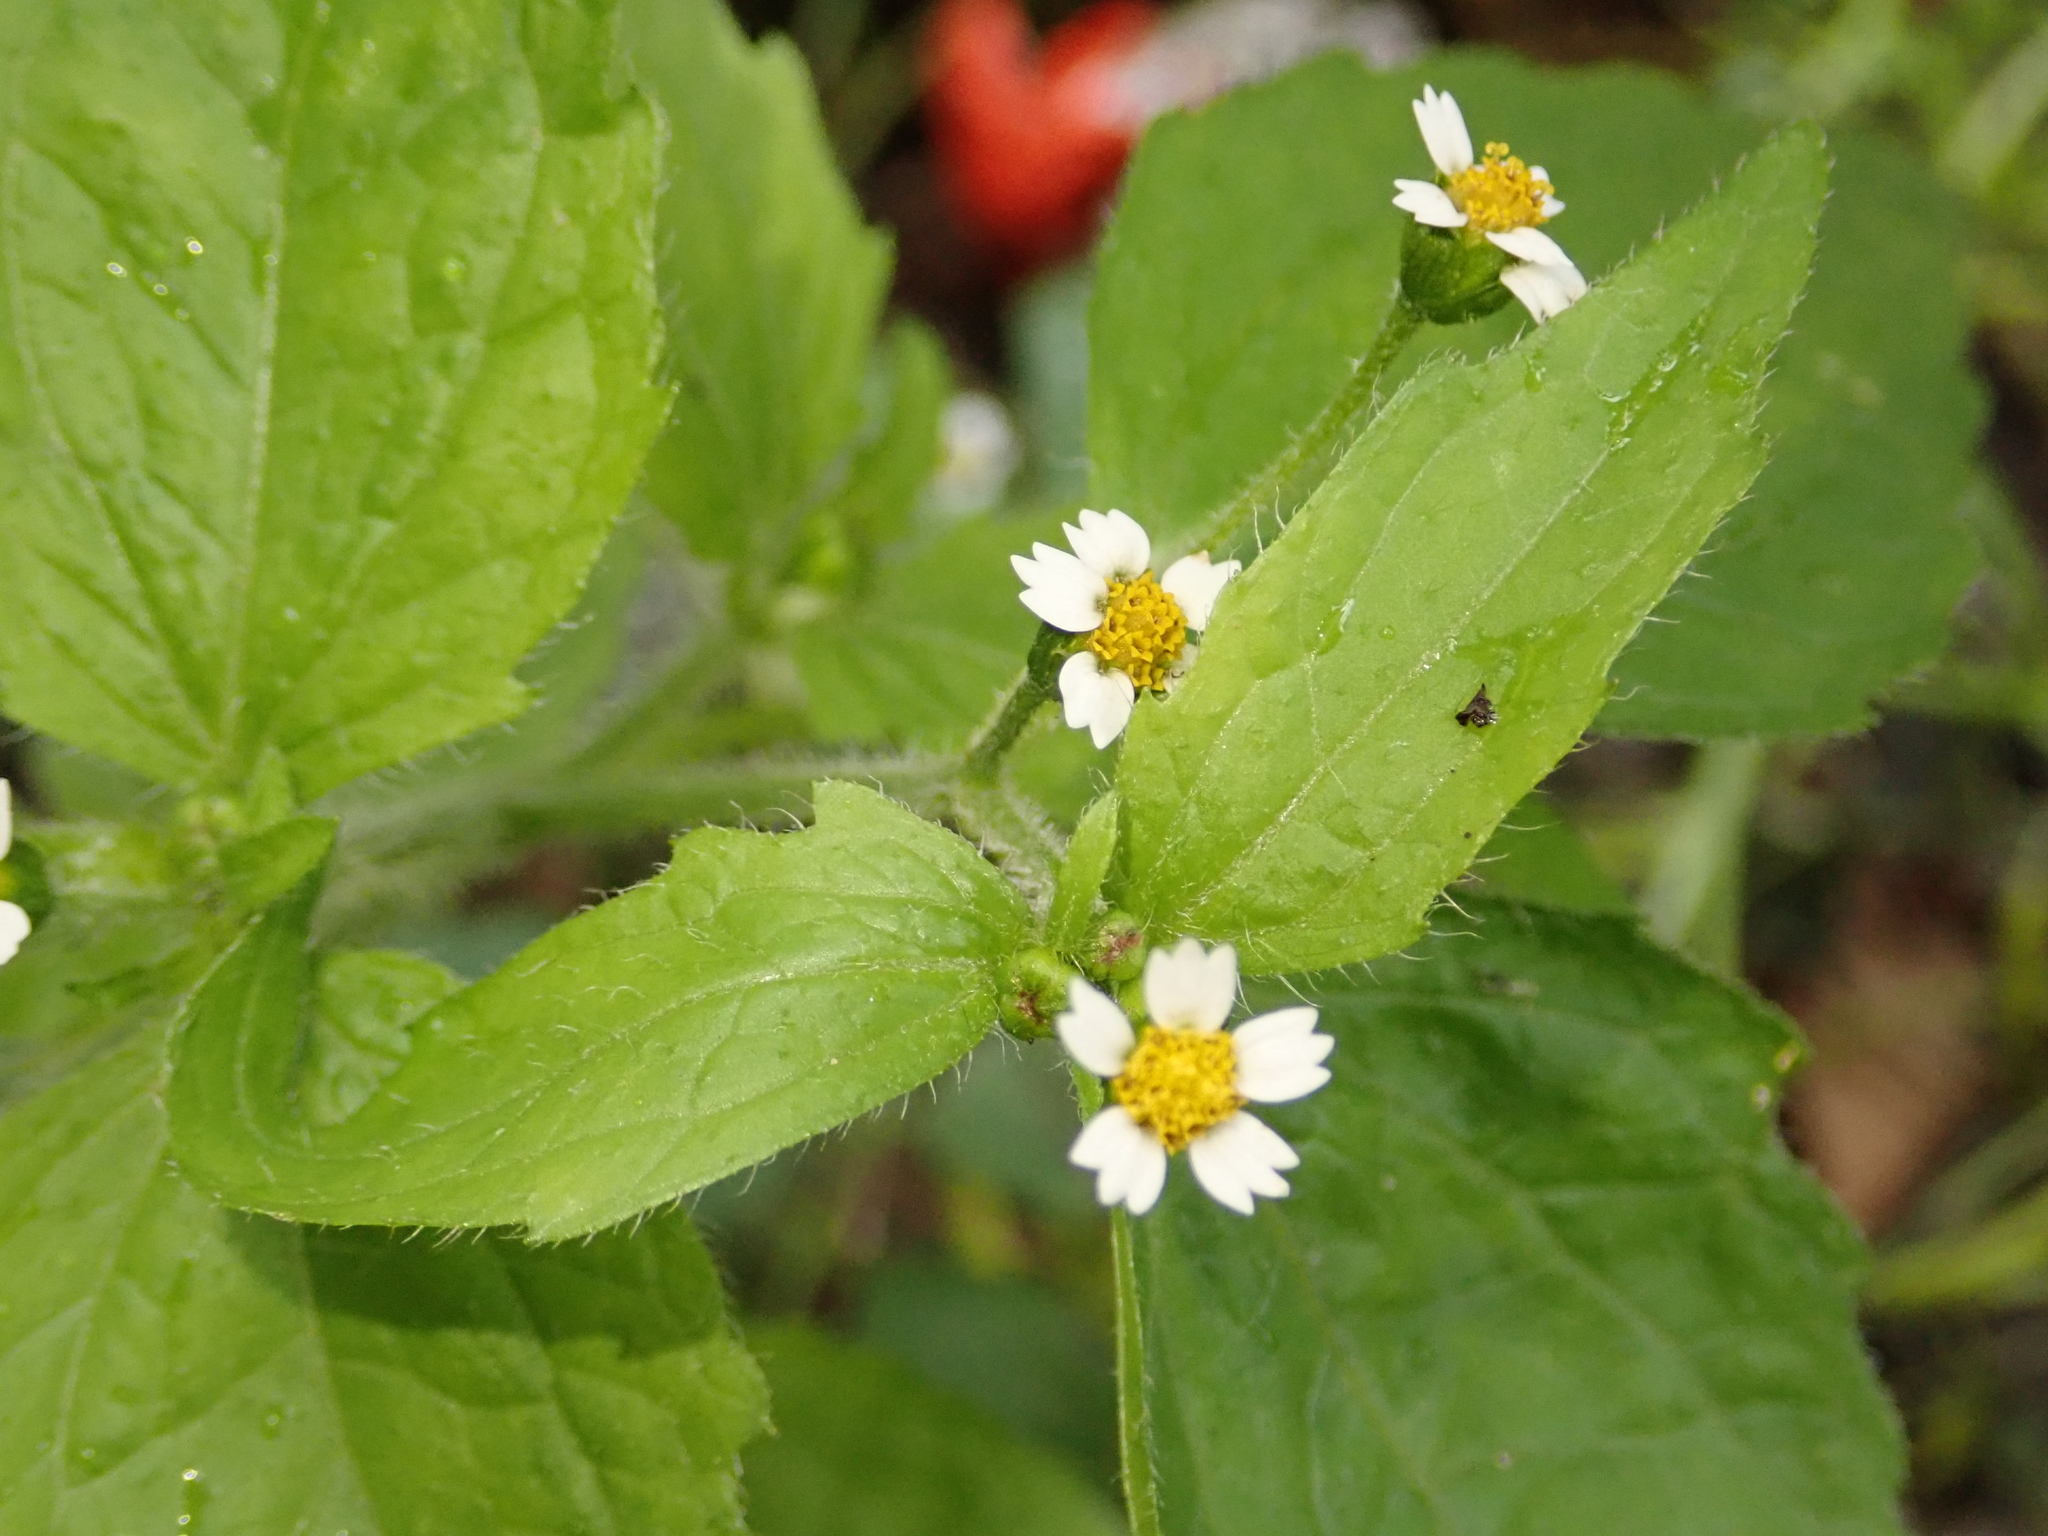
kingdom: Plantae
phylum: Tracheophyta
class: Magnoliopsida
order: Asterales
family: Asteraceae
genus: Galinsoga
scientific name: Galinsoga quadriradiata
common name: Shaggy soldier
